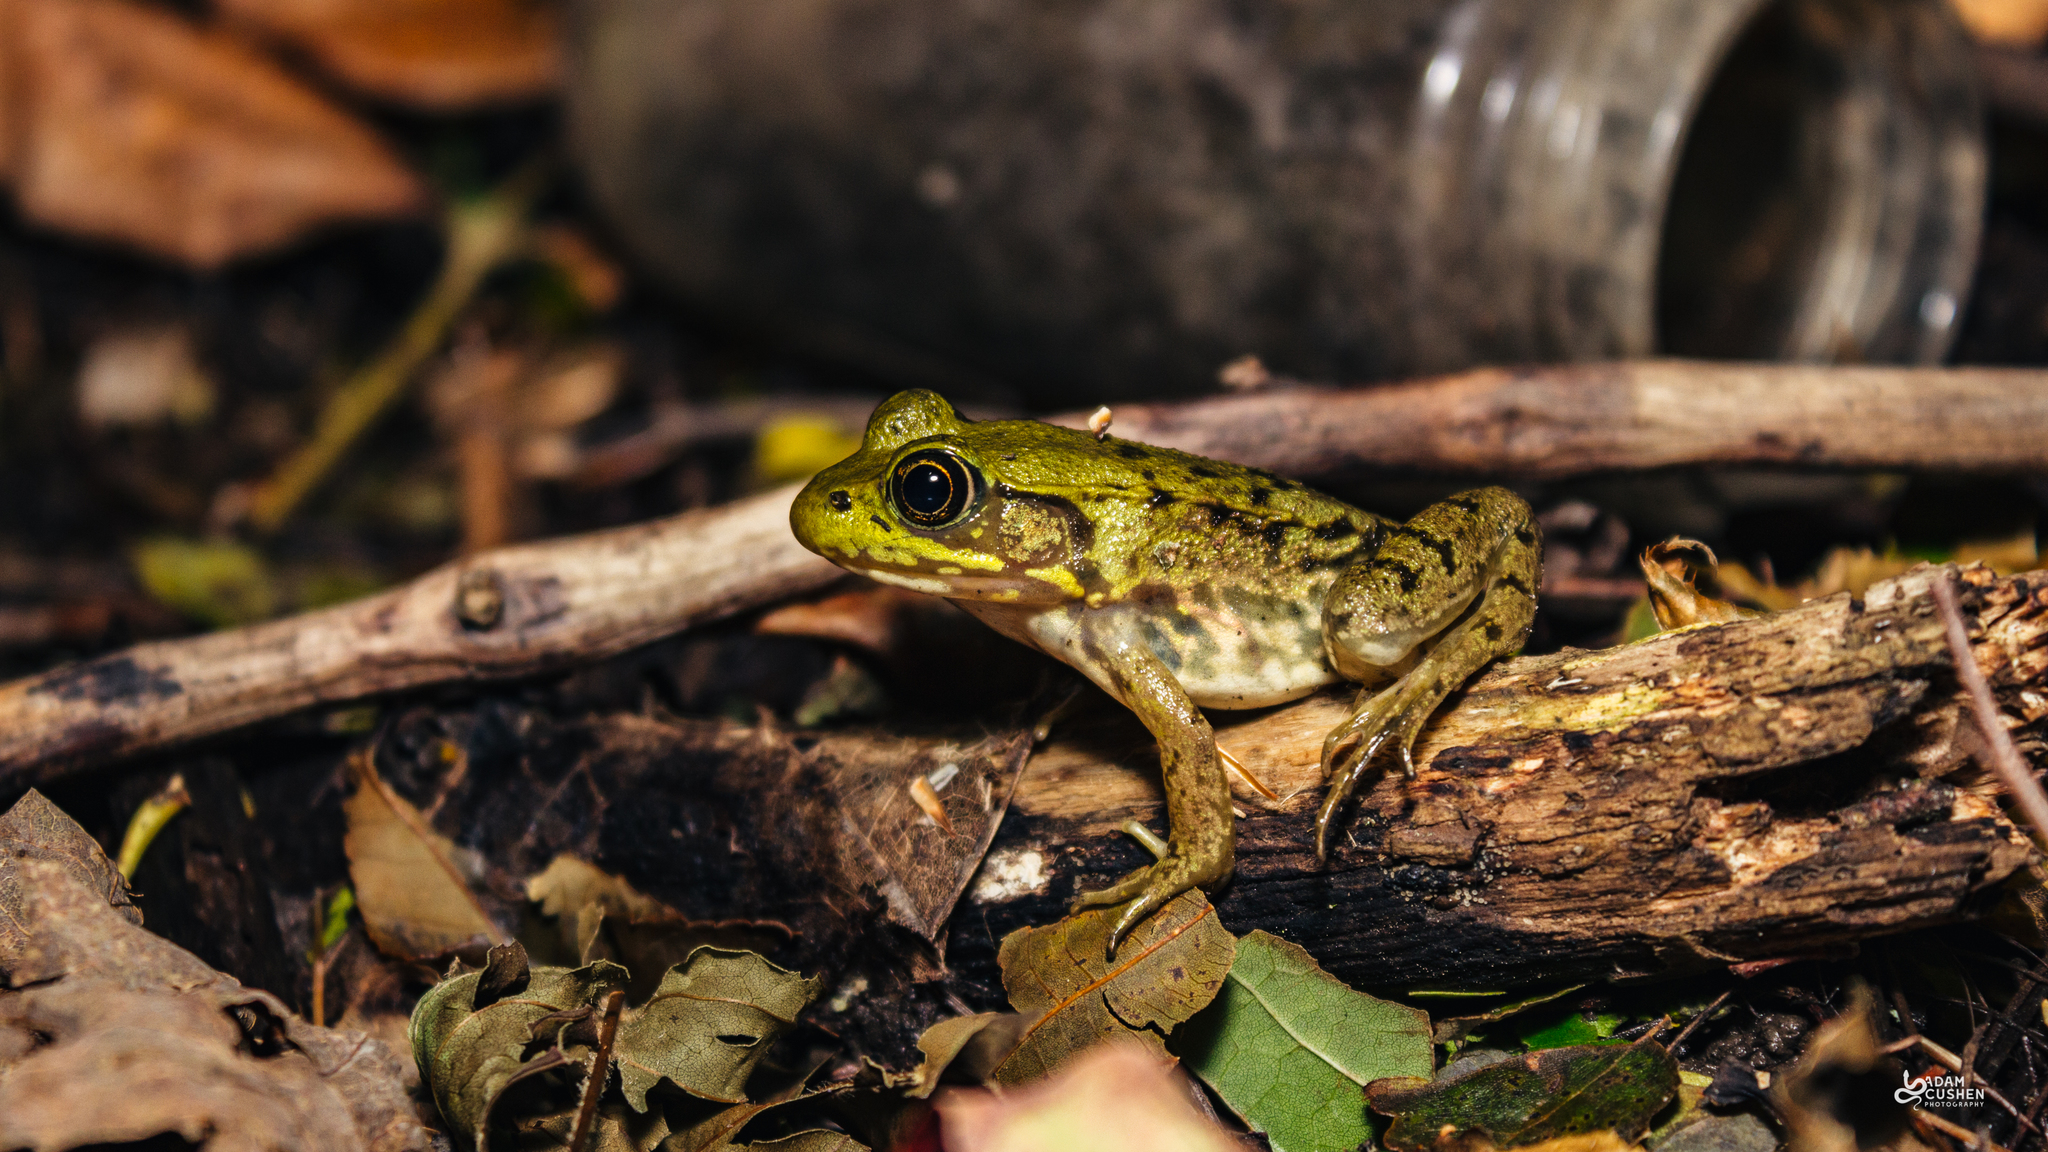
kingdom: Animalia
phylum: Chordata
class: Amphibia
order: Anura
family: Ranidae
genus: Lithobates
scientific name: Lithobates clamitans
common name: Green frog
